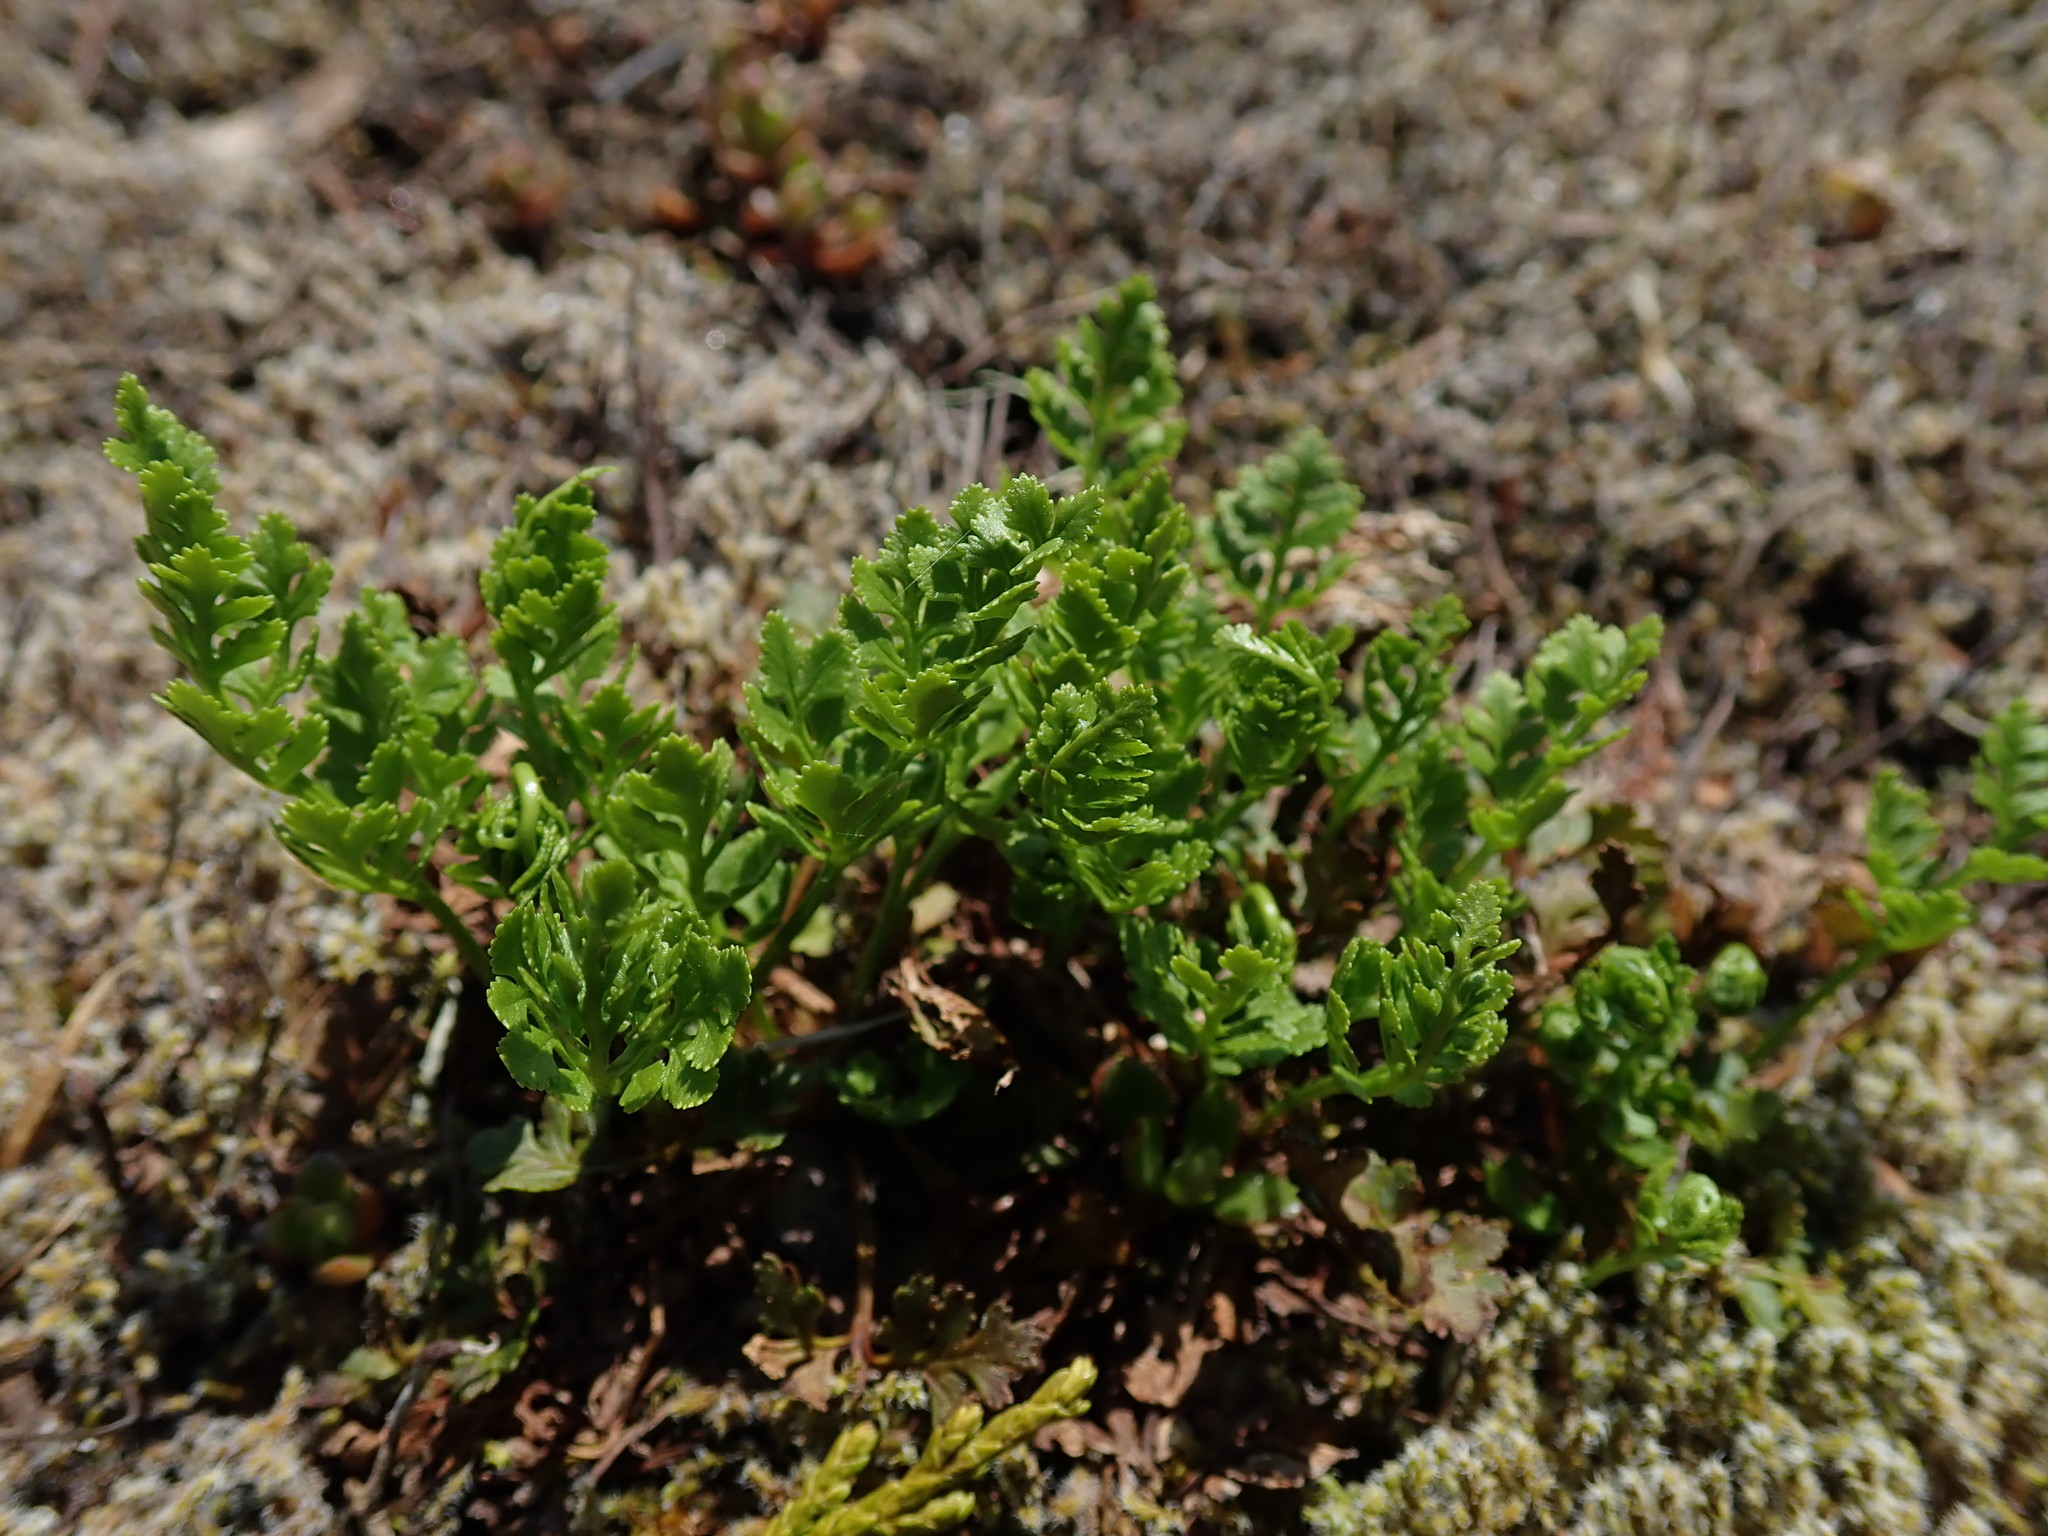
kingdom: Plantae
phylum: Tracheophyta
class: Polypodiopsida
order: Polypodiales
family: Pteridaceae
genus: Cryptogramma
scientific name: Cryptogramma acrostichoides
